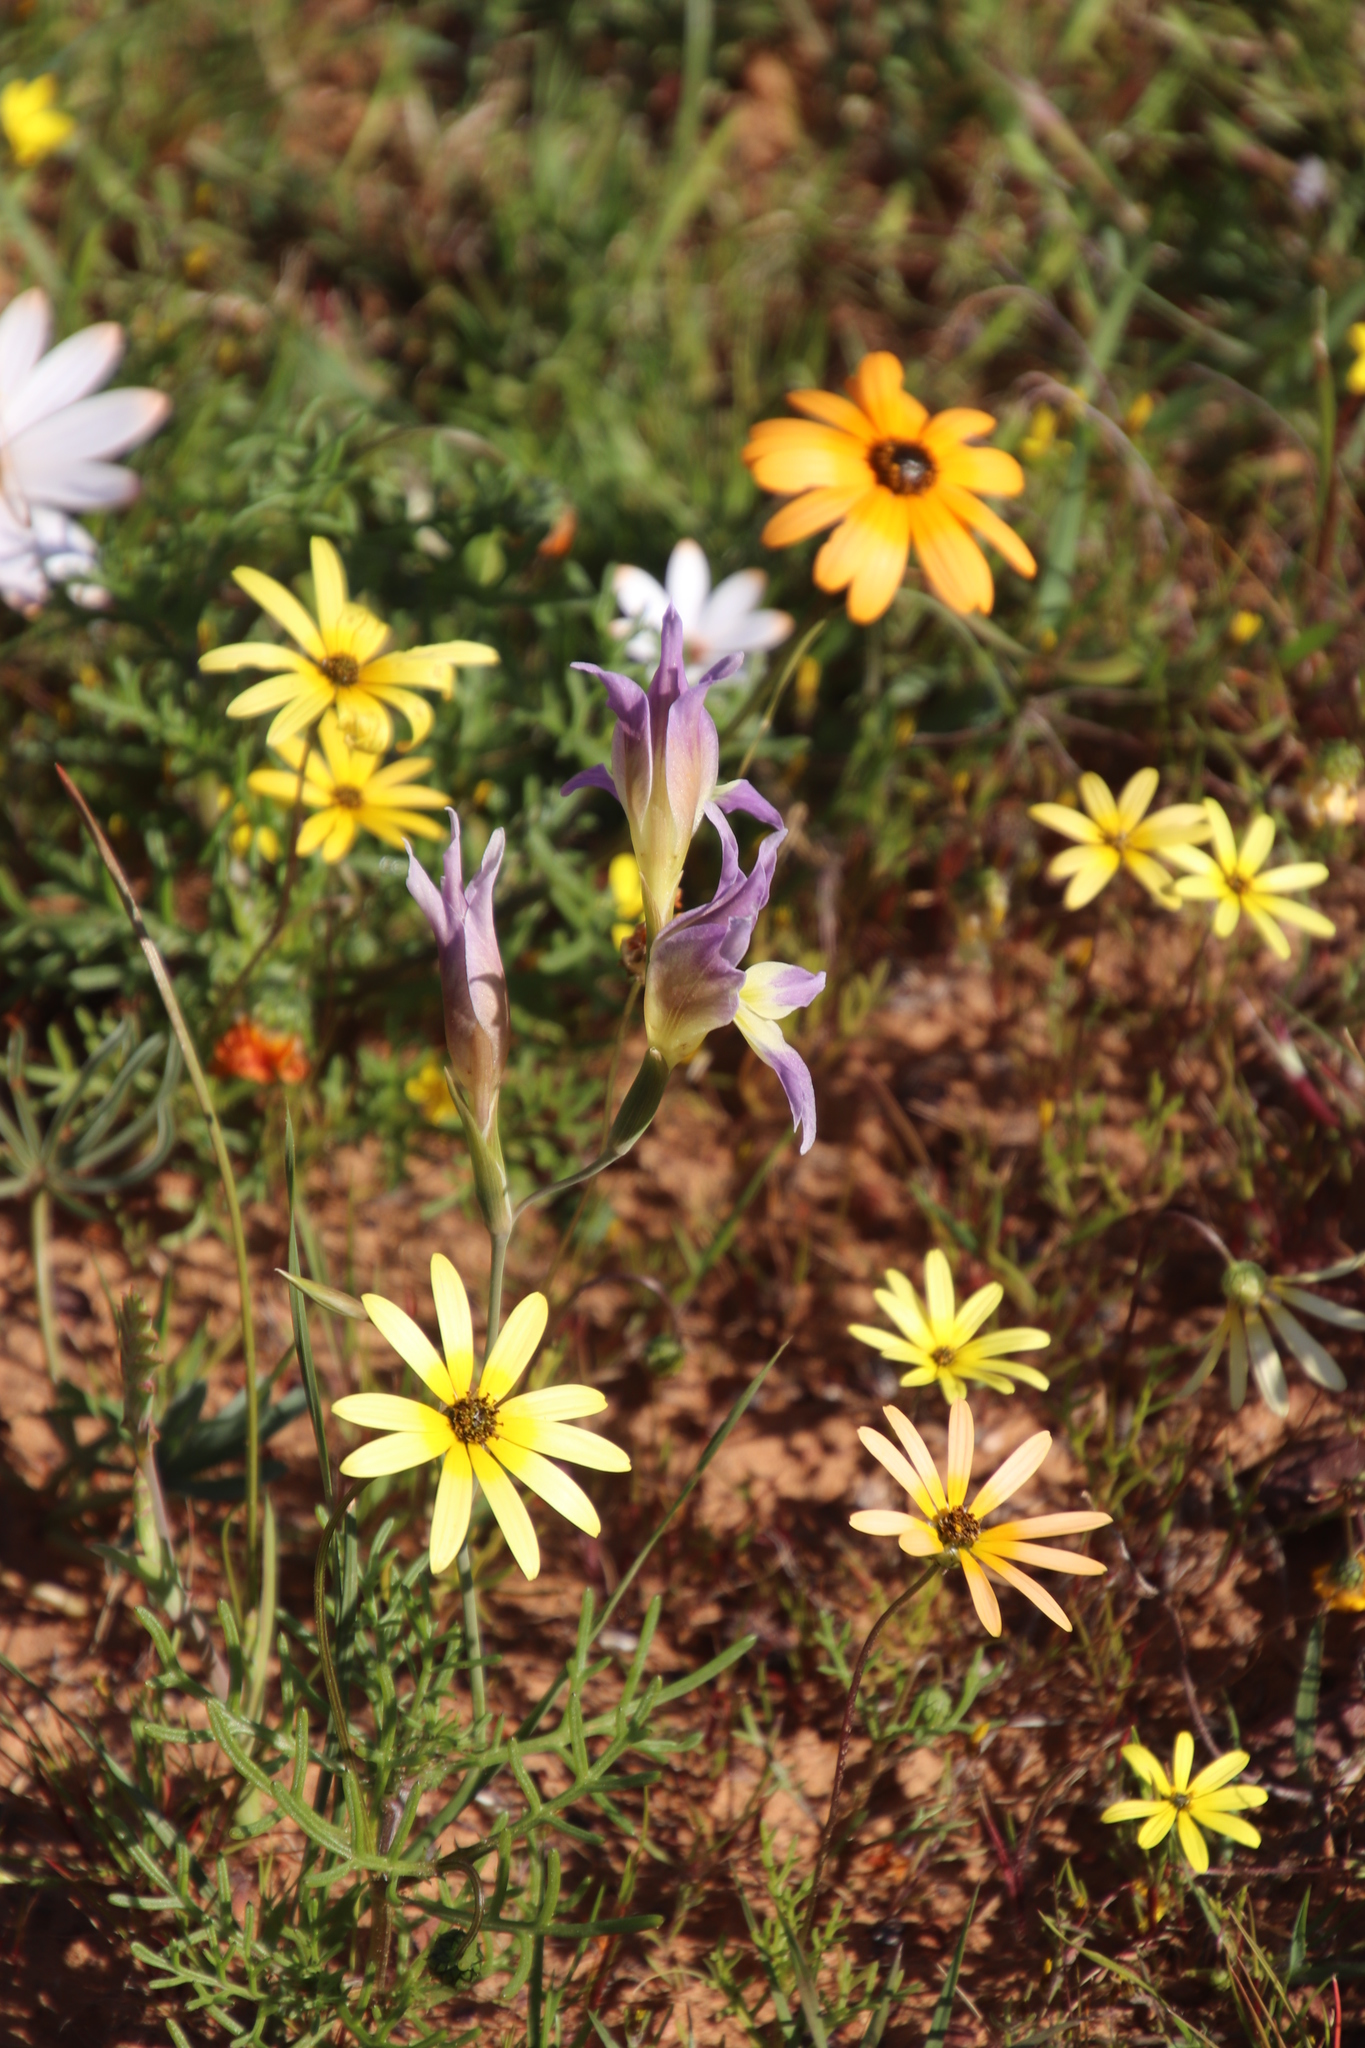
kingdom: Plantae
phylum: Tracheophyta
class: Liliopsida
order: Asparagales
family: Iridaceae
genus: Gladiolus
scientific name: Gladiolus venustus
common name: Purple kalkoentjie
